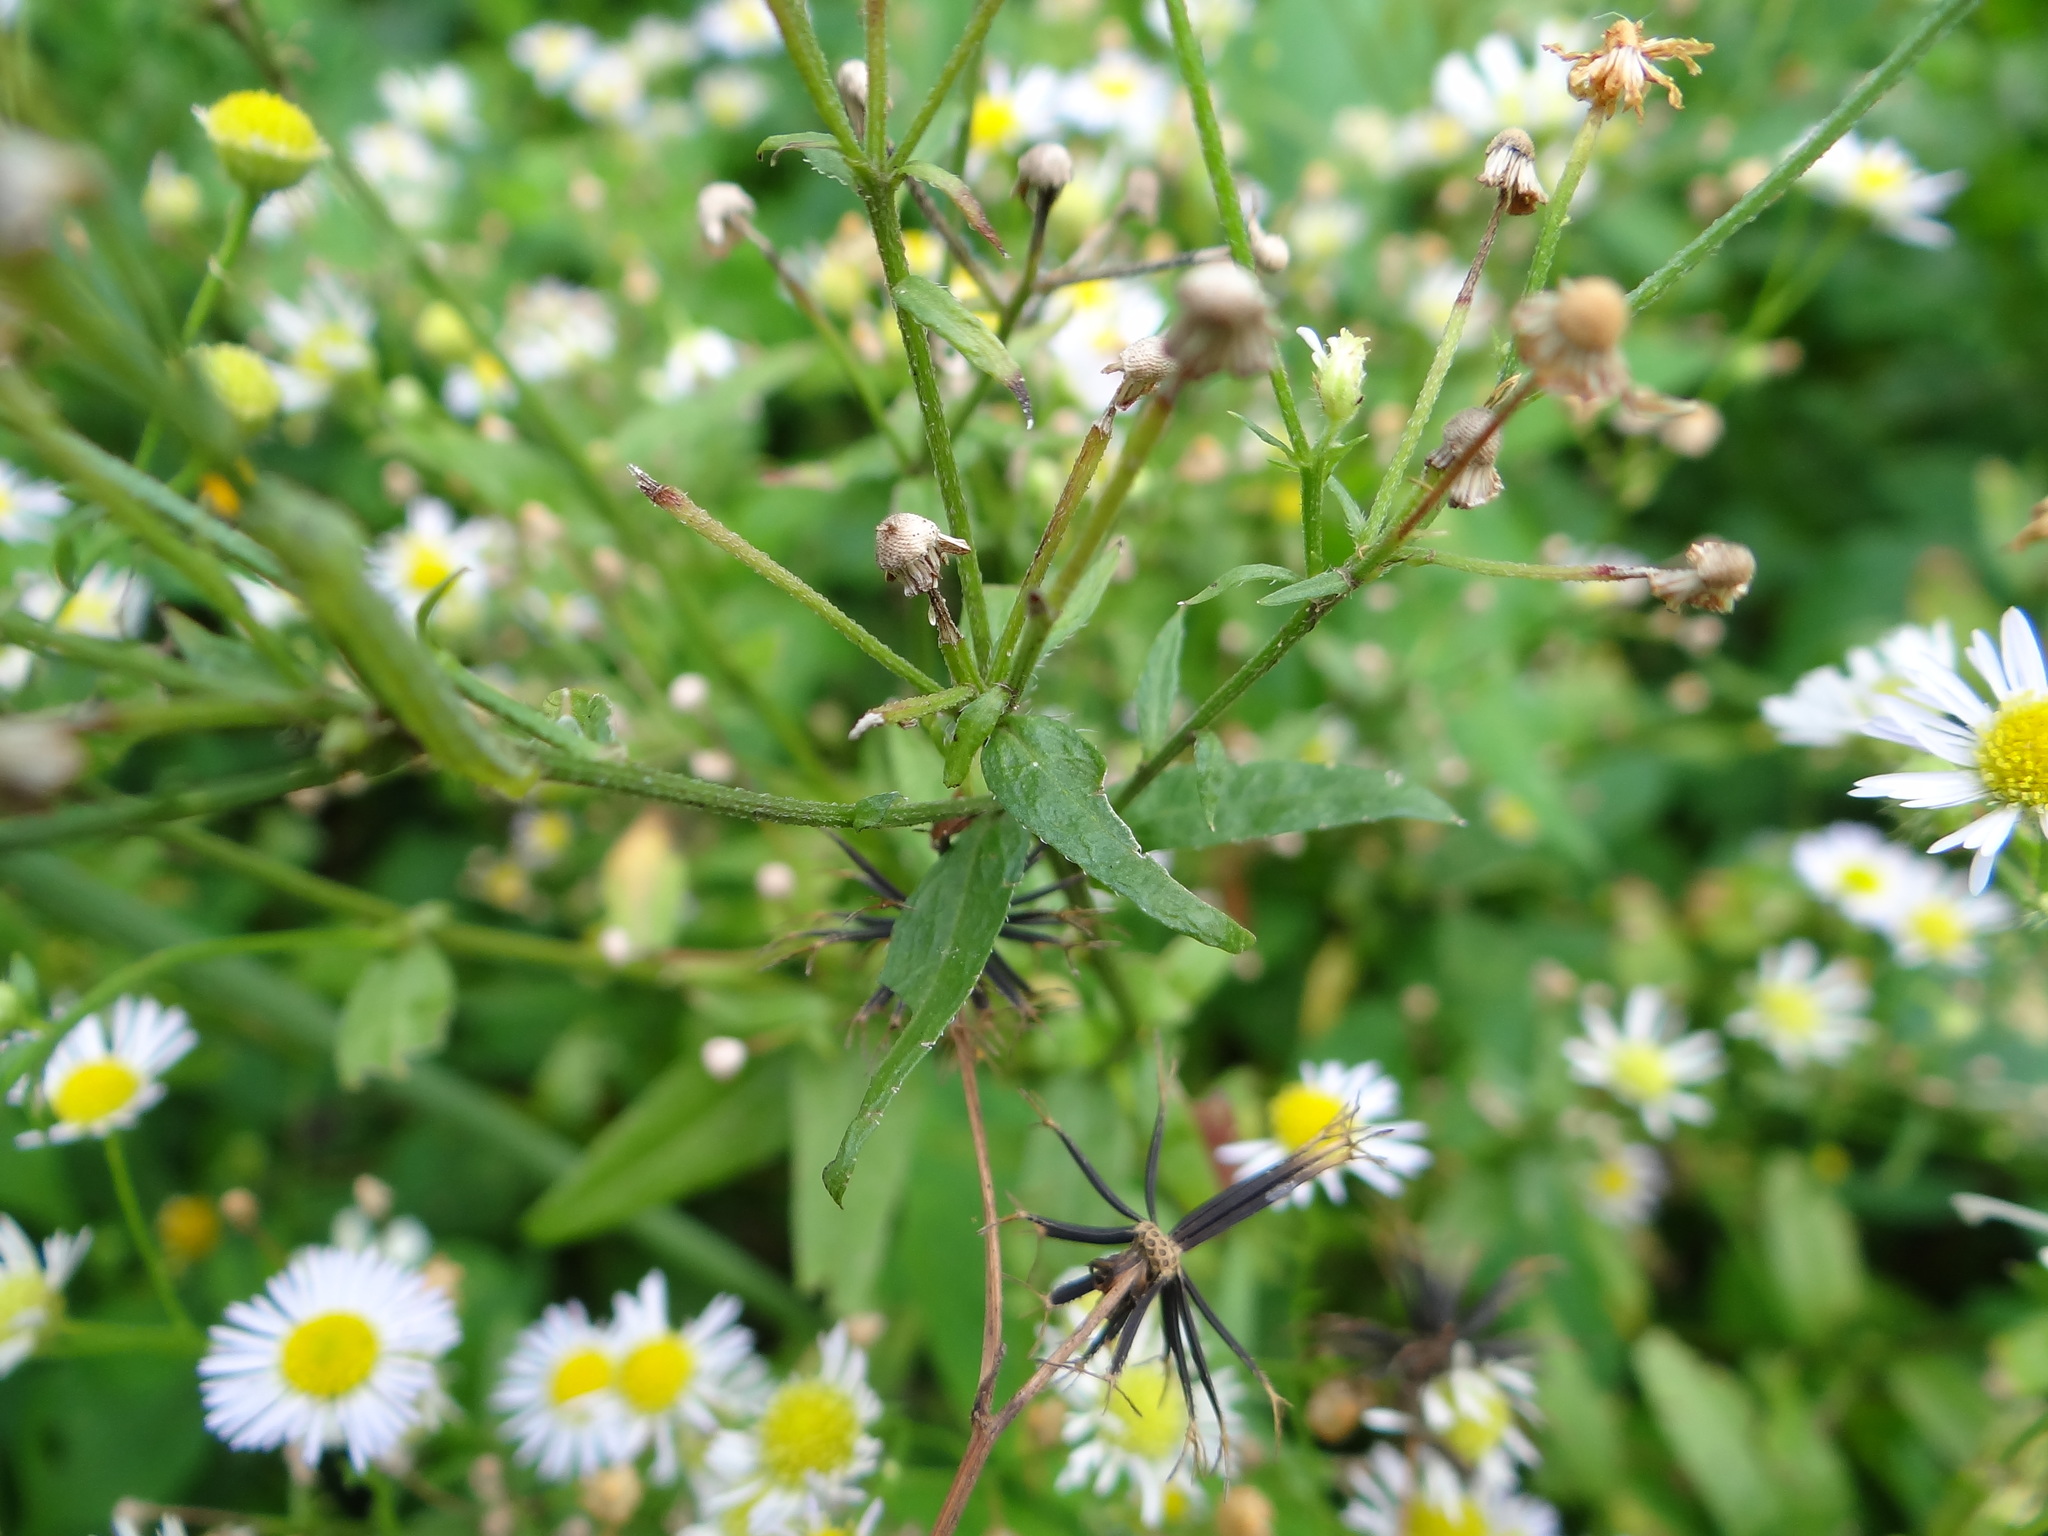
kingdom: Plantae
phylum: Tracheophyta
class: Magnoliopsida
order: Asterales
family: Asteraceae
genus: Erigeron
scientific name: Erigeron annuus
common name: Tall fleabane
